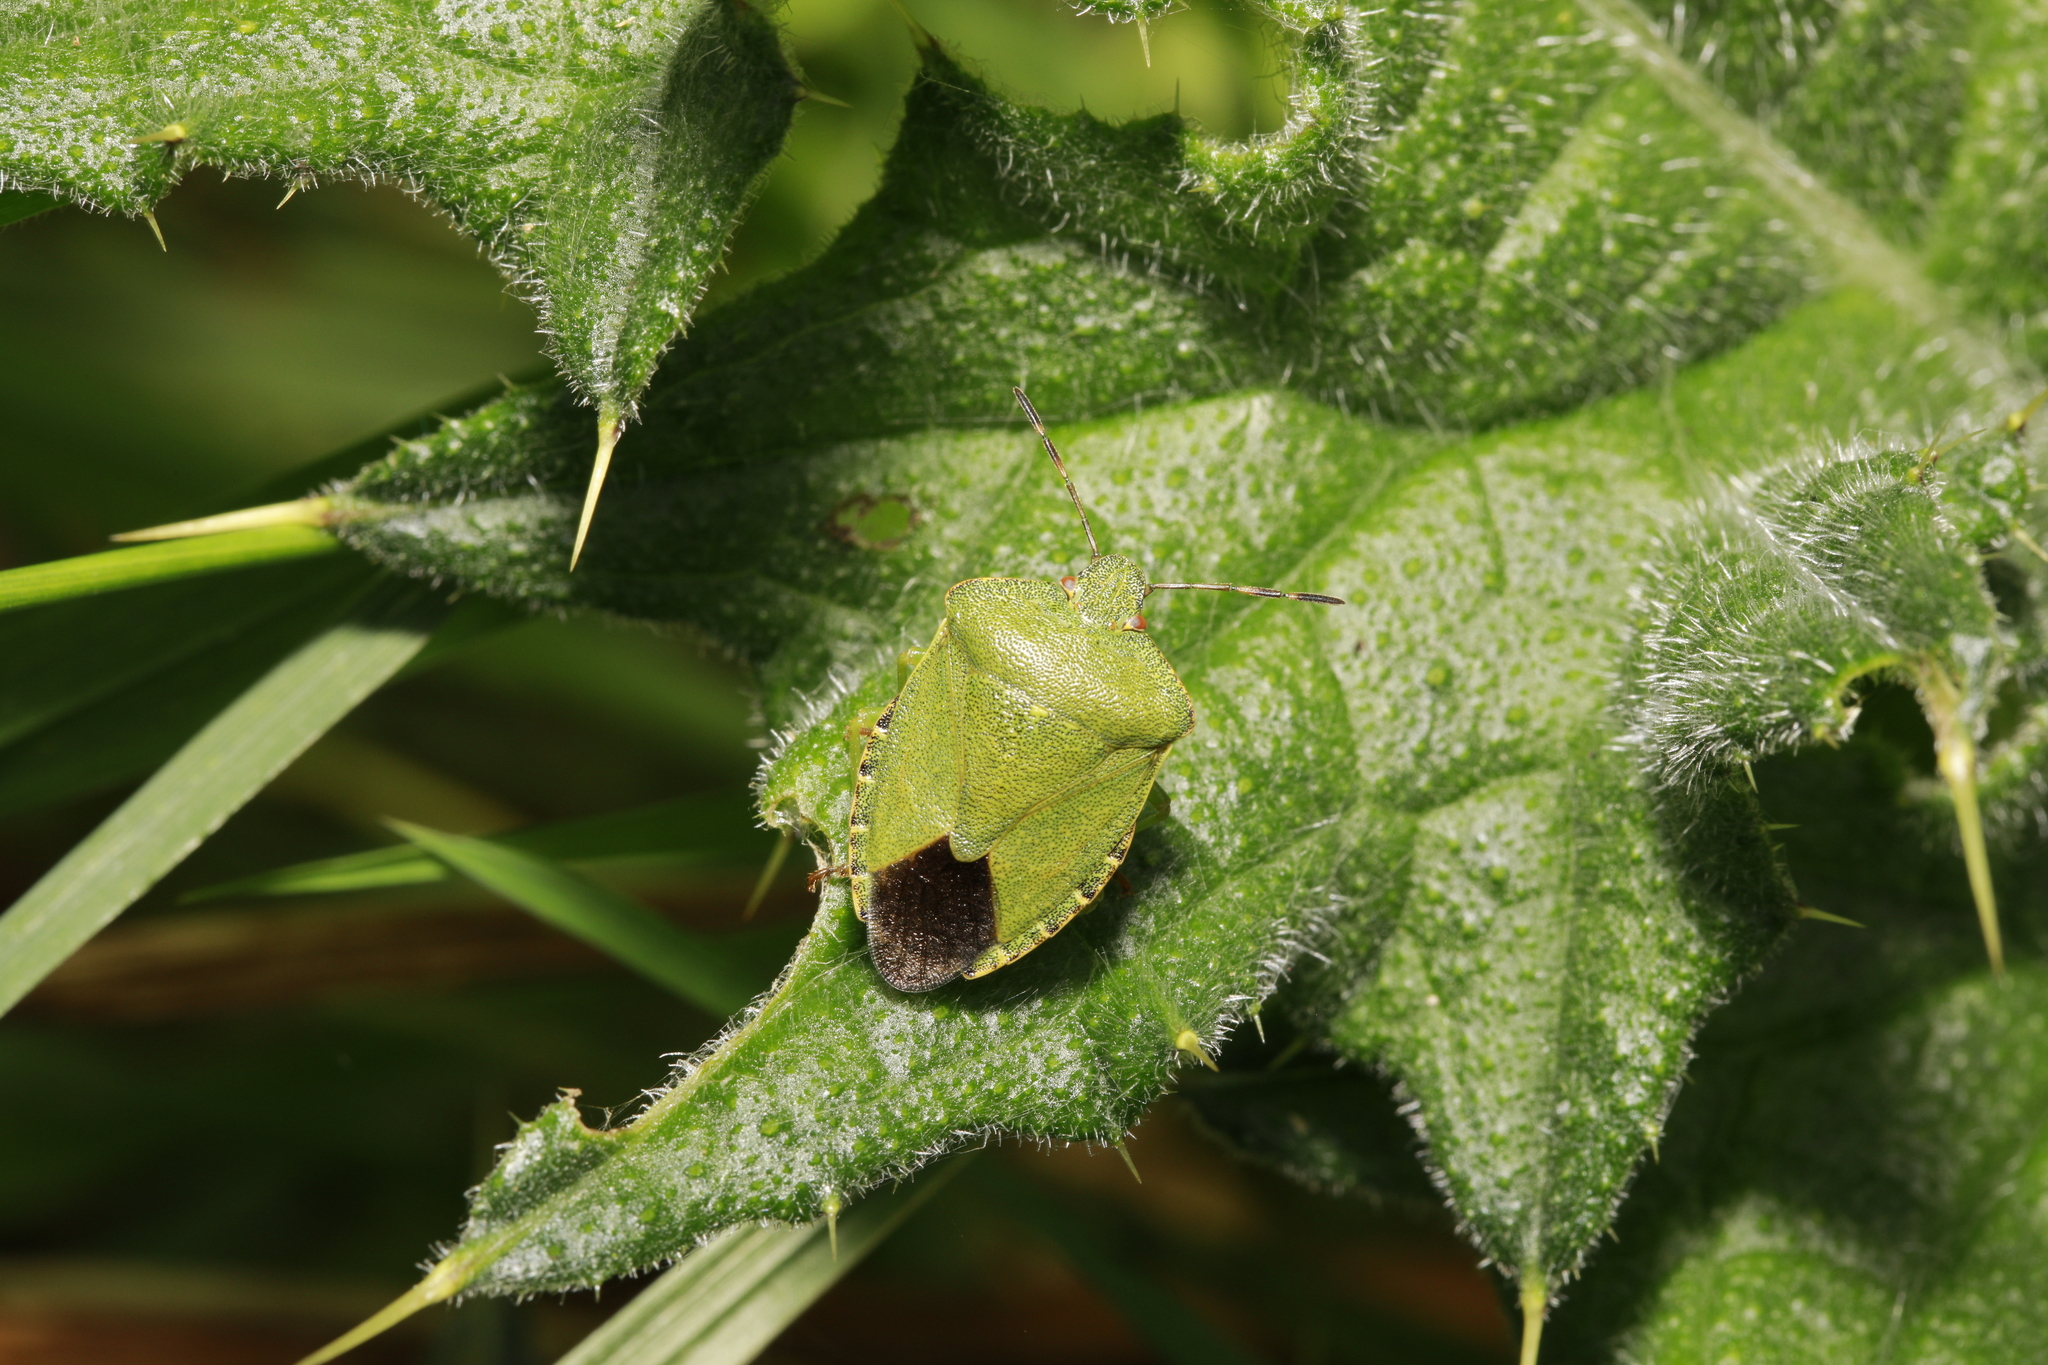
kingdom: Animalia
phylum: Arthropoda
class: Insecta
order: Hemiptera
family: Pentatomidae
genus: Palomena
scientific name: Palomena prasina
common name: Green shieldbug
